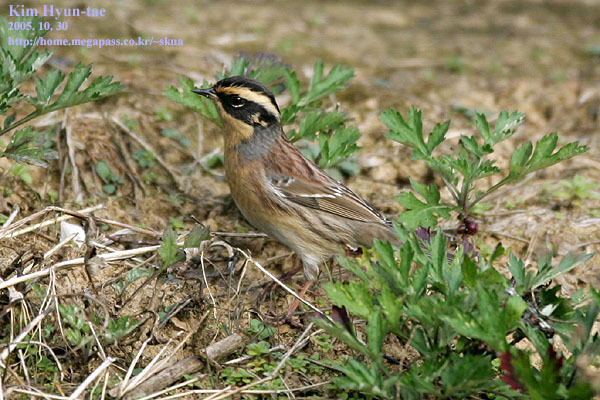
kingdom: Animalia
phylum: Chordata
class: Aves
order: Passeriformes
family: Prunellidae
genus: Prunella
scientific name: Prunella montanella
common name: Siberian accentor
